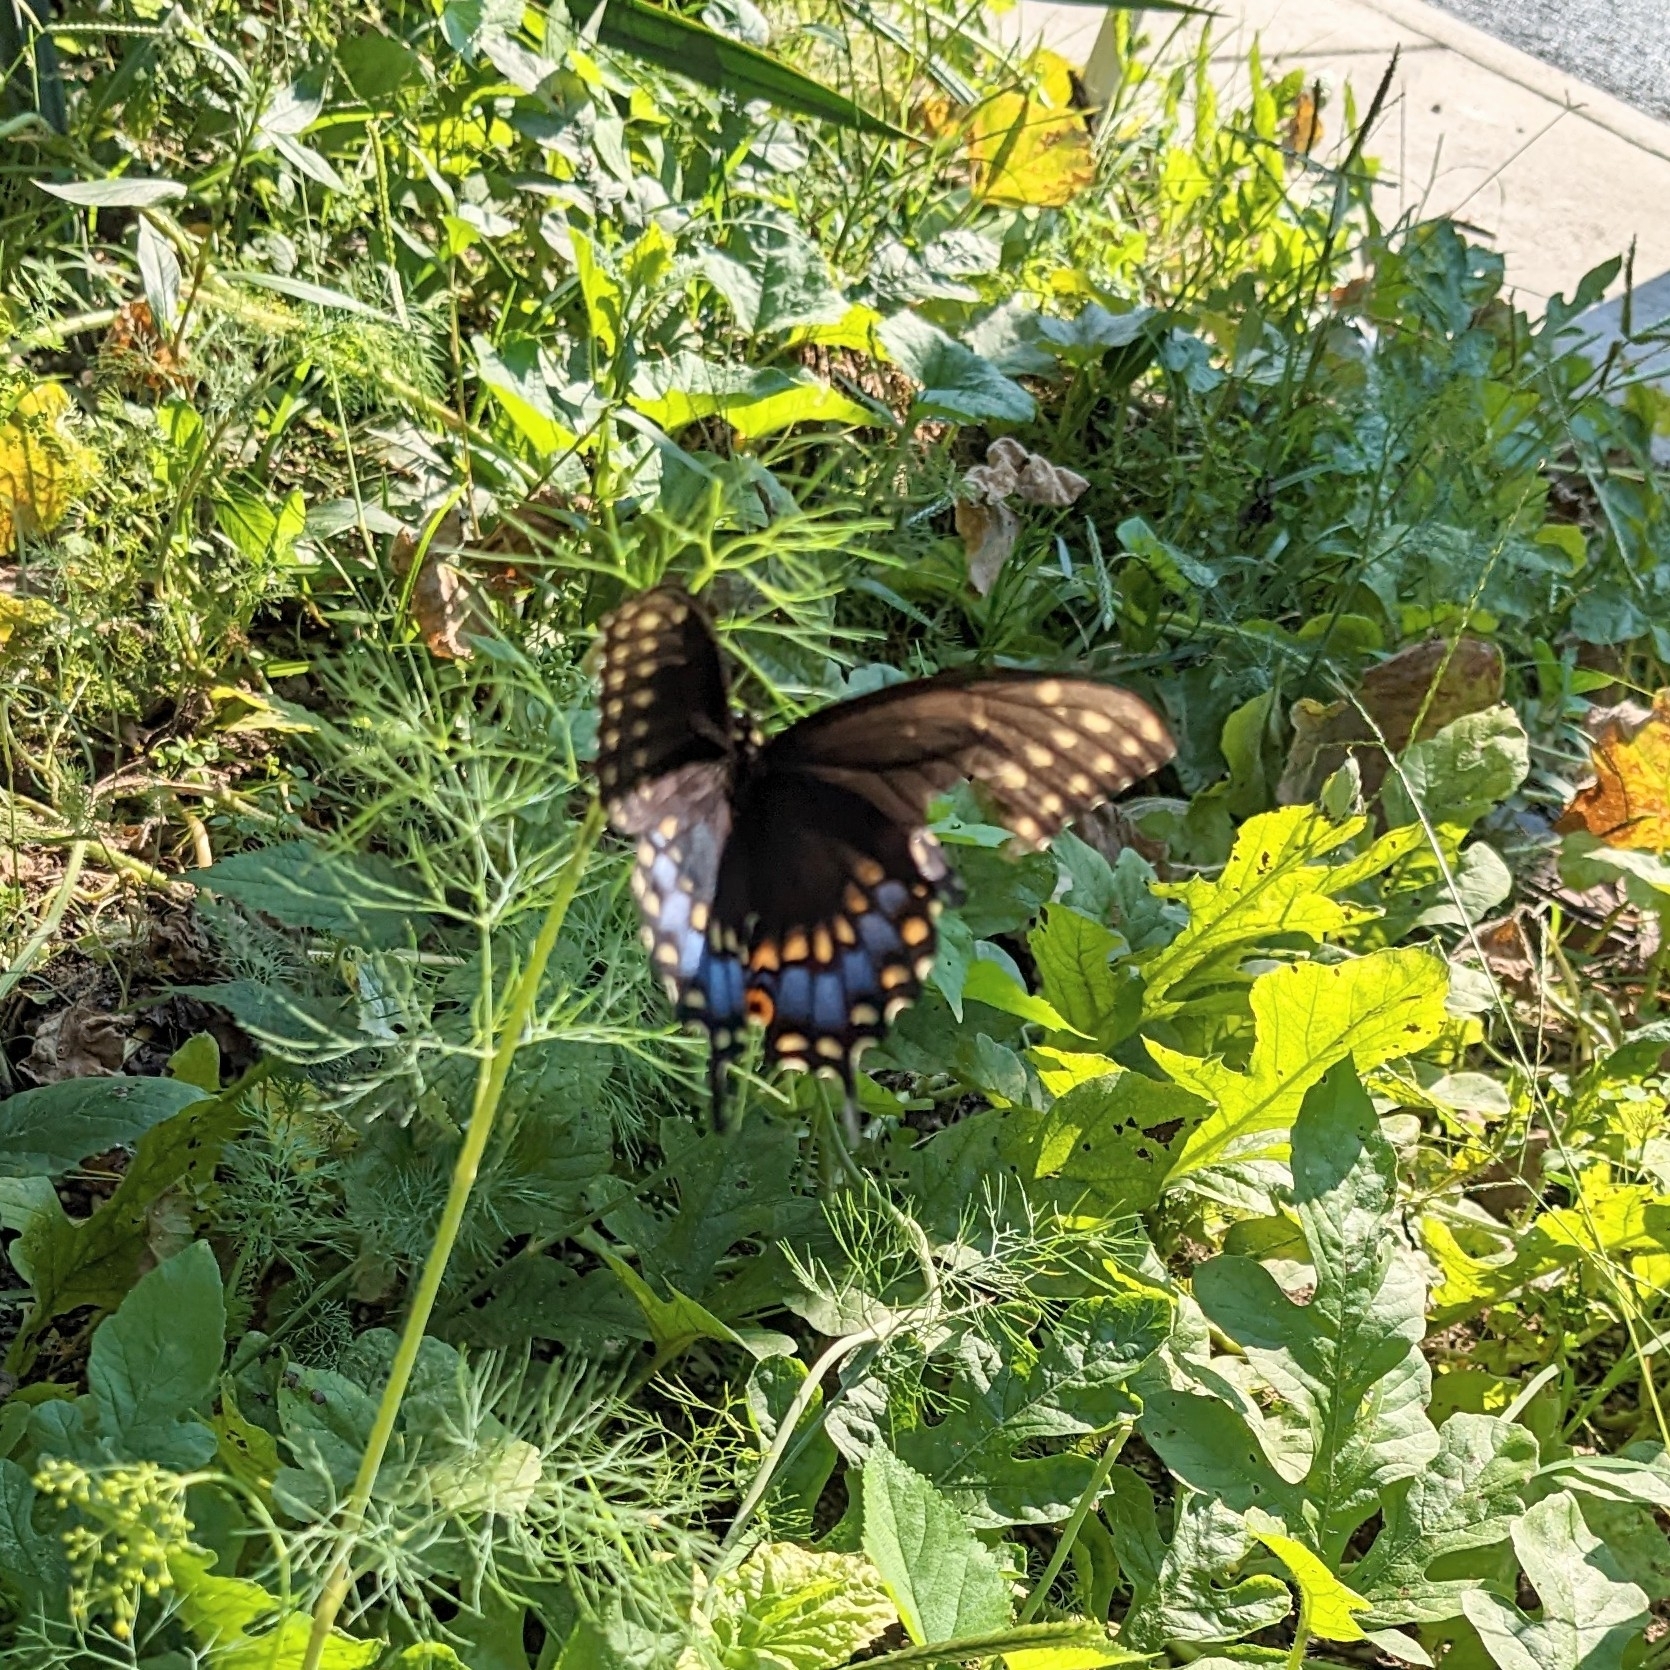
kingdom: Animalia
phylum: Arthropoda
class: Insecta
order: Lepidoptera
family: Papilionidae
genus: Papilio
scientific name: Papilio polyxenes
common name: Black swallowtail
